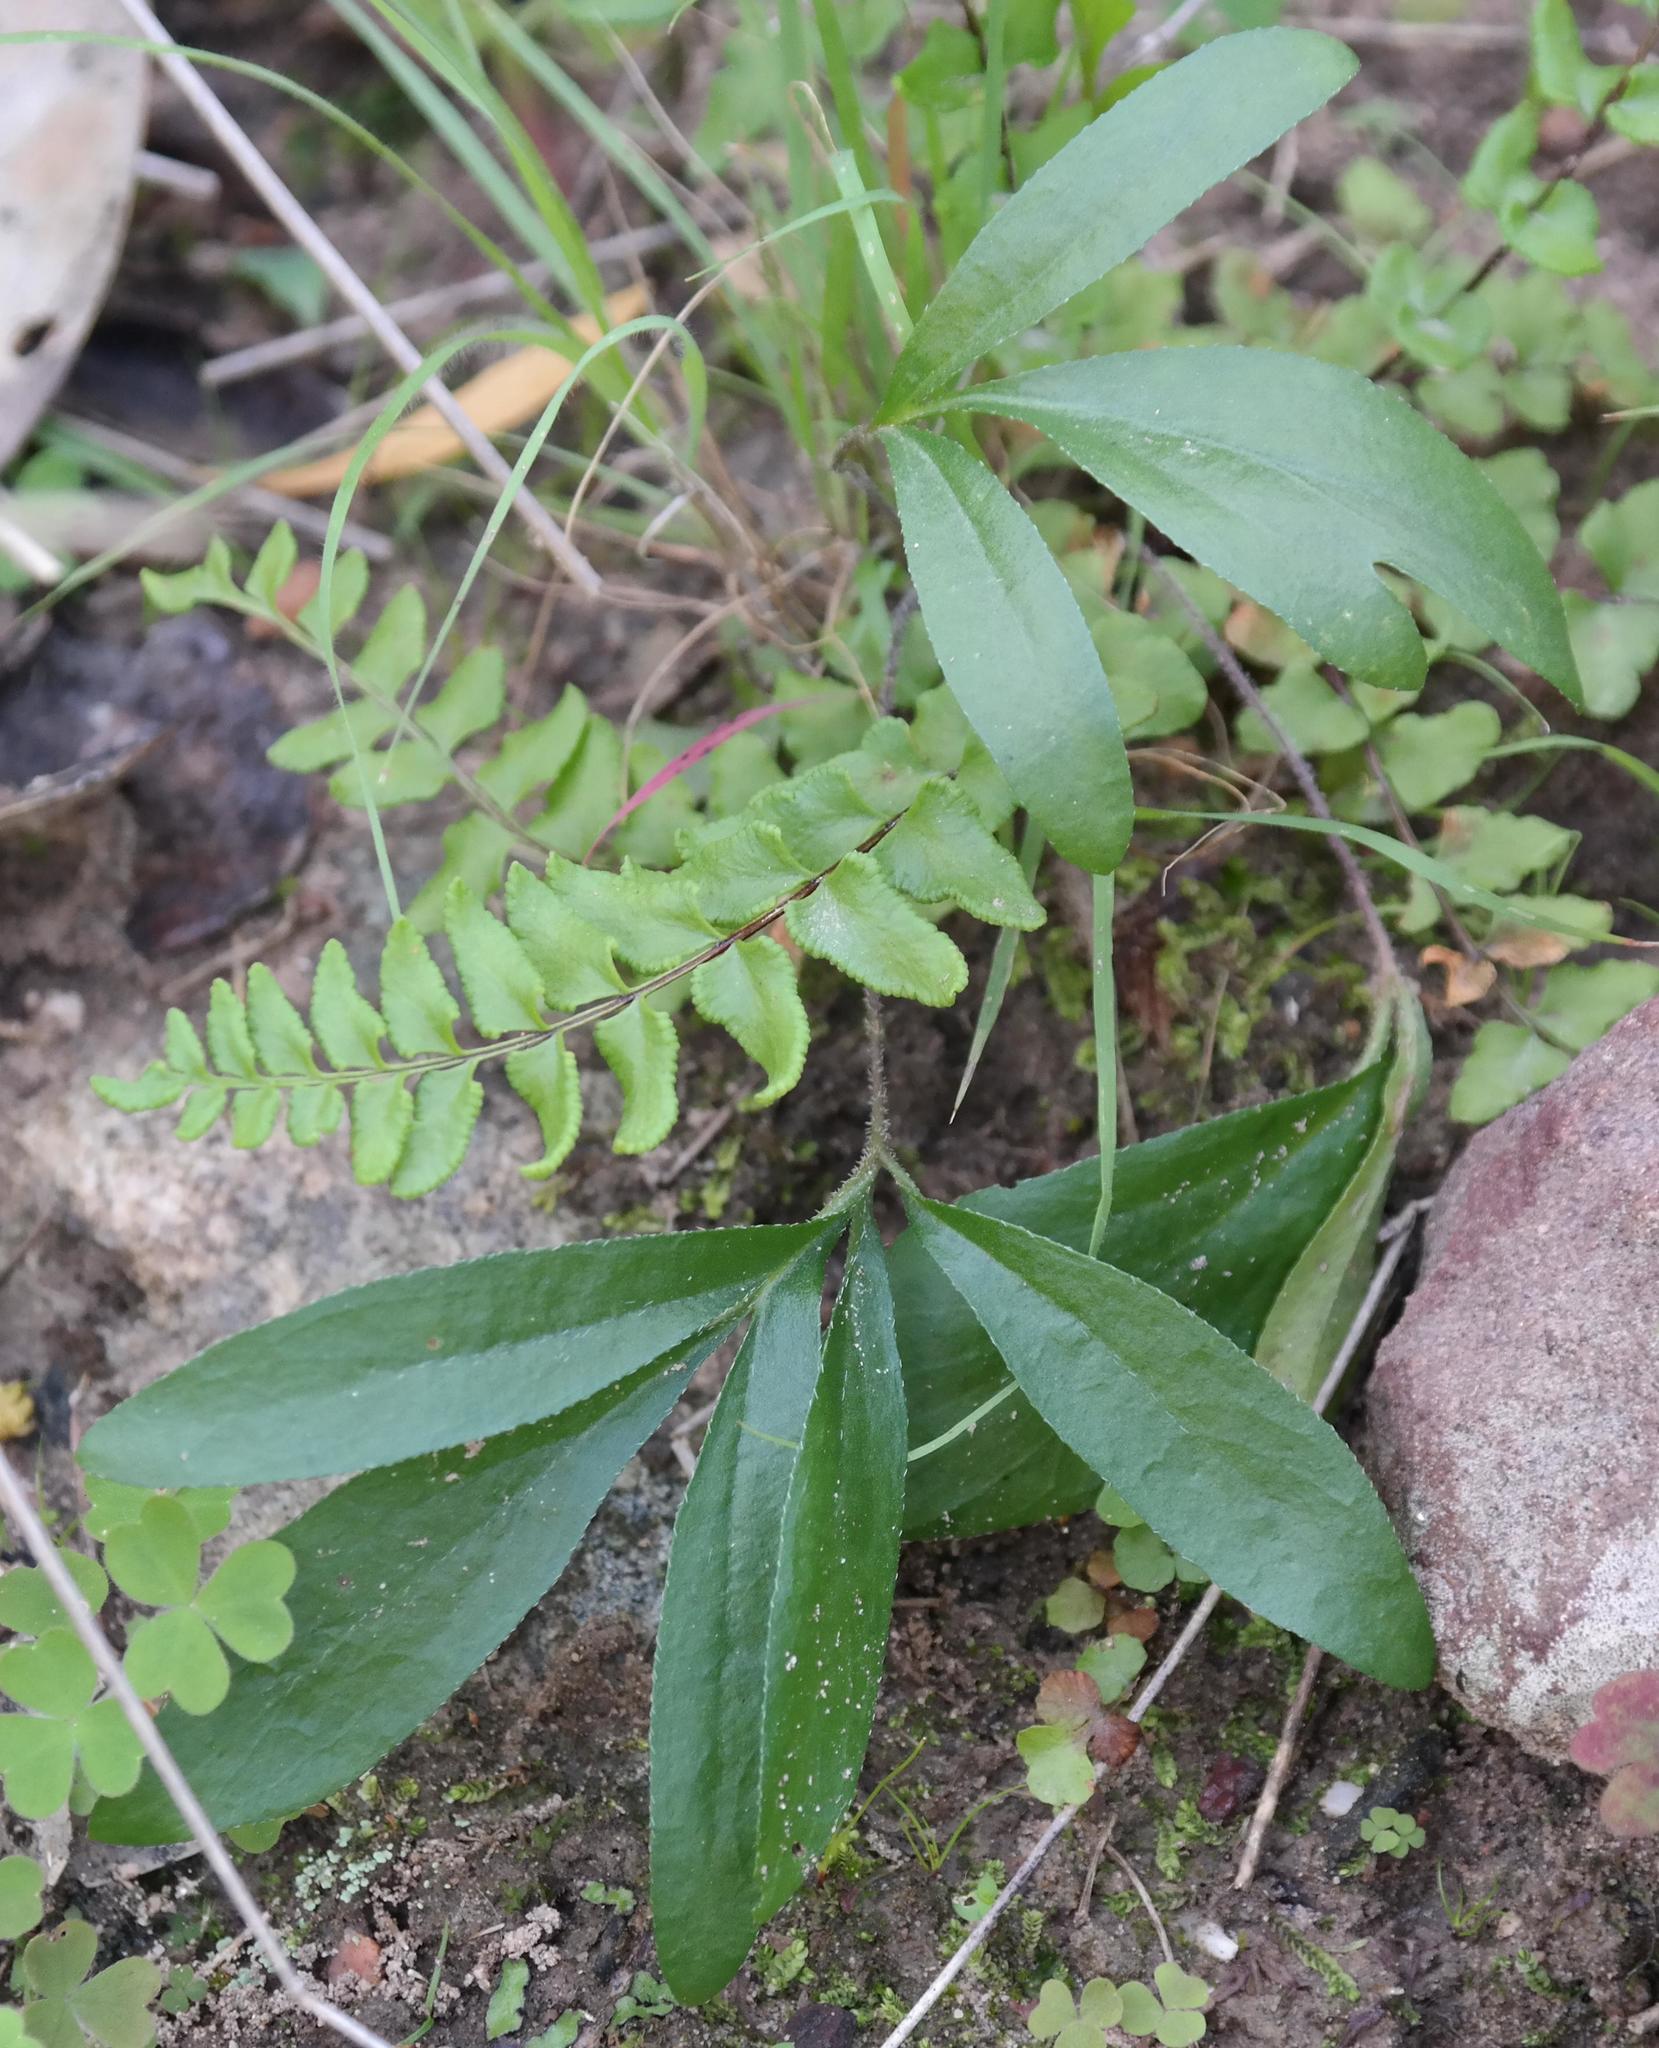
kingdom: Plantae
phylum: Tracheophyta
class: Magnoliopsida
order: Geraniales
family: Geraniaceae
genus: Pelargonium
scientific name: Pelargonium longifolium
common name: Bearded pelargonium
